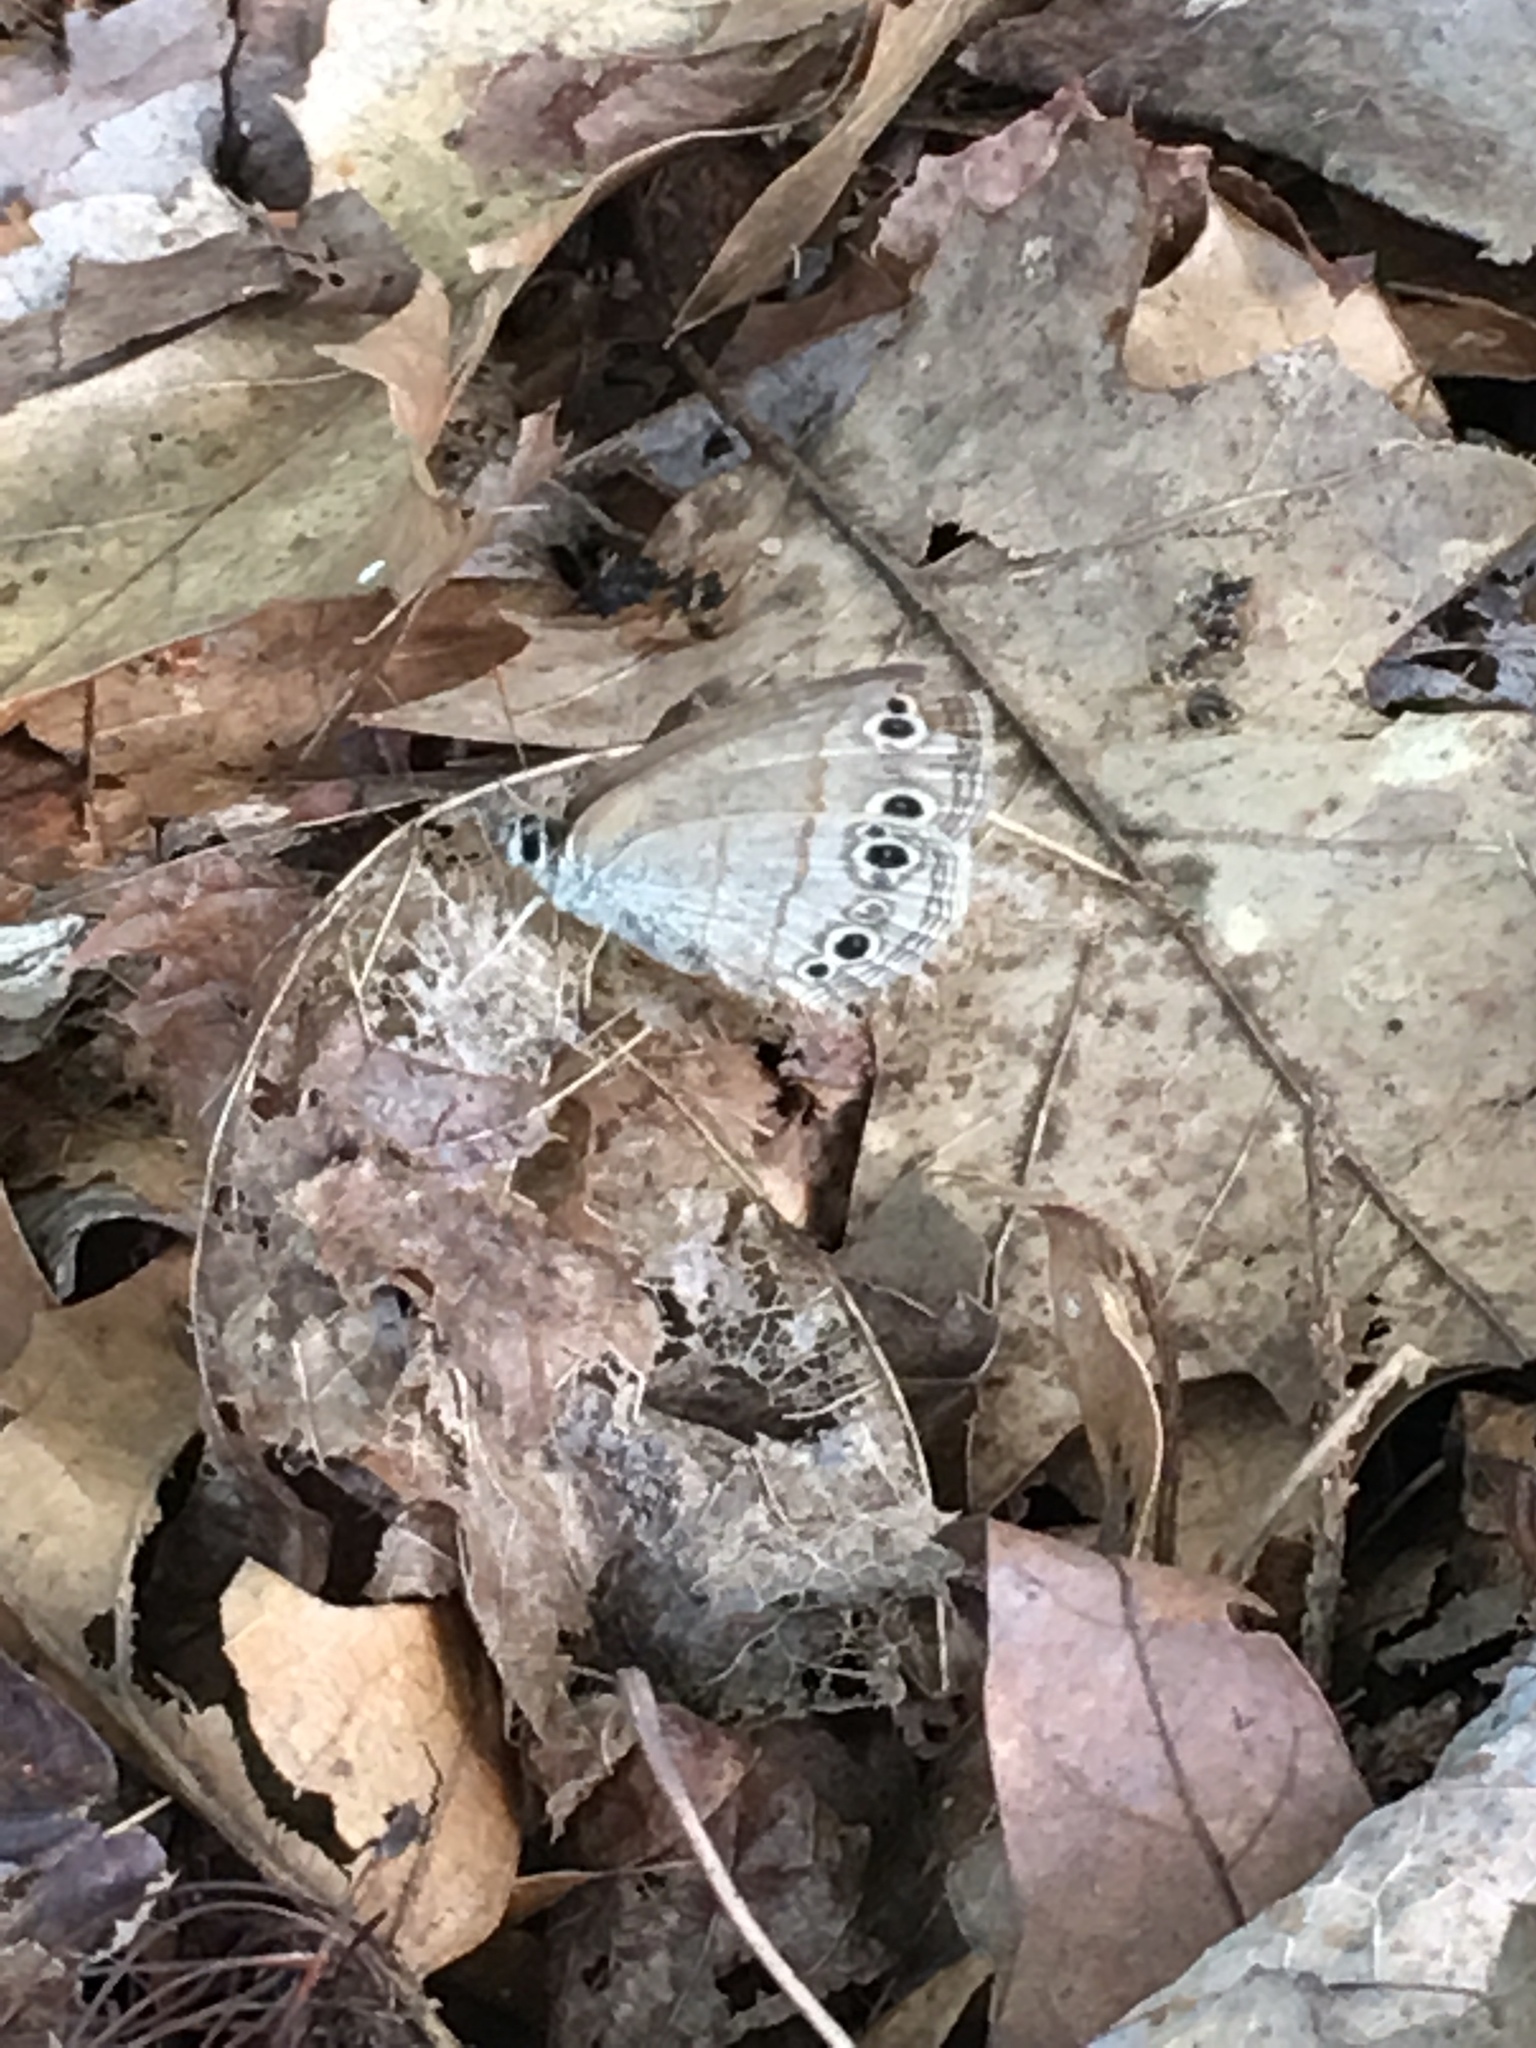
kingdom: Animalia
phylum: Arthropoda
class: Insecta
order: Lepidoptera
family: Nymphalidae
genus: Euptychia
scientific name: Euptychia cymela
